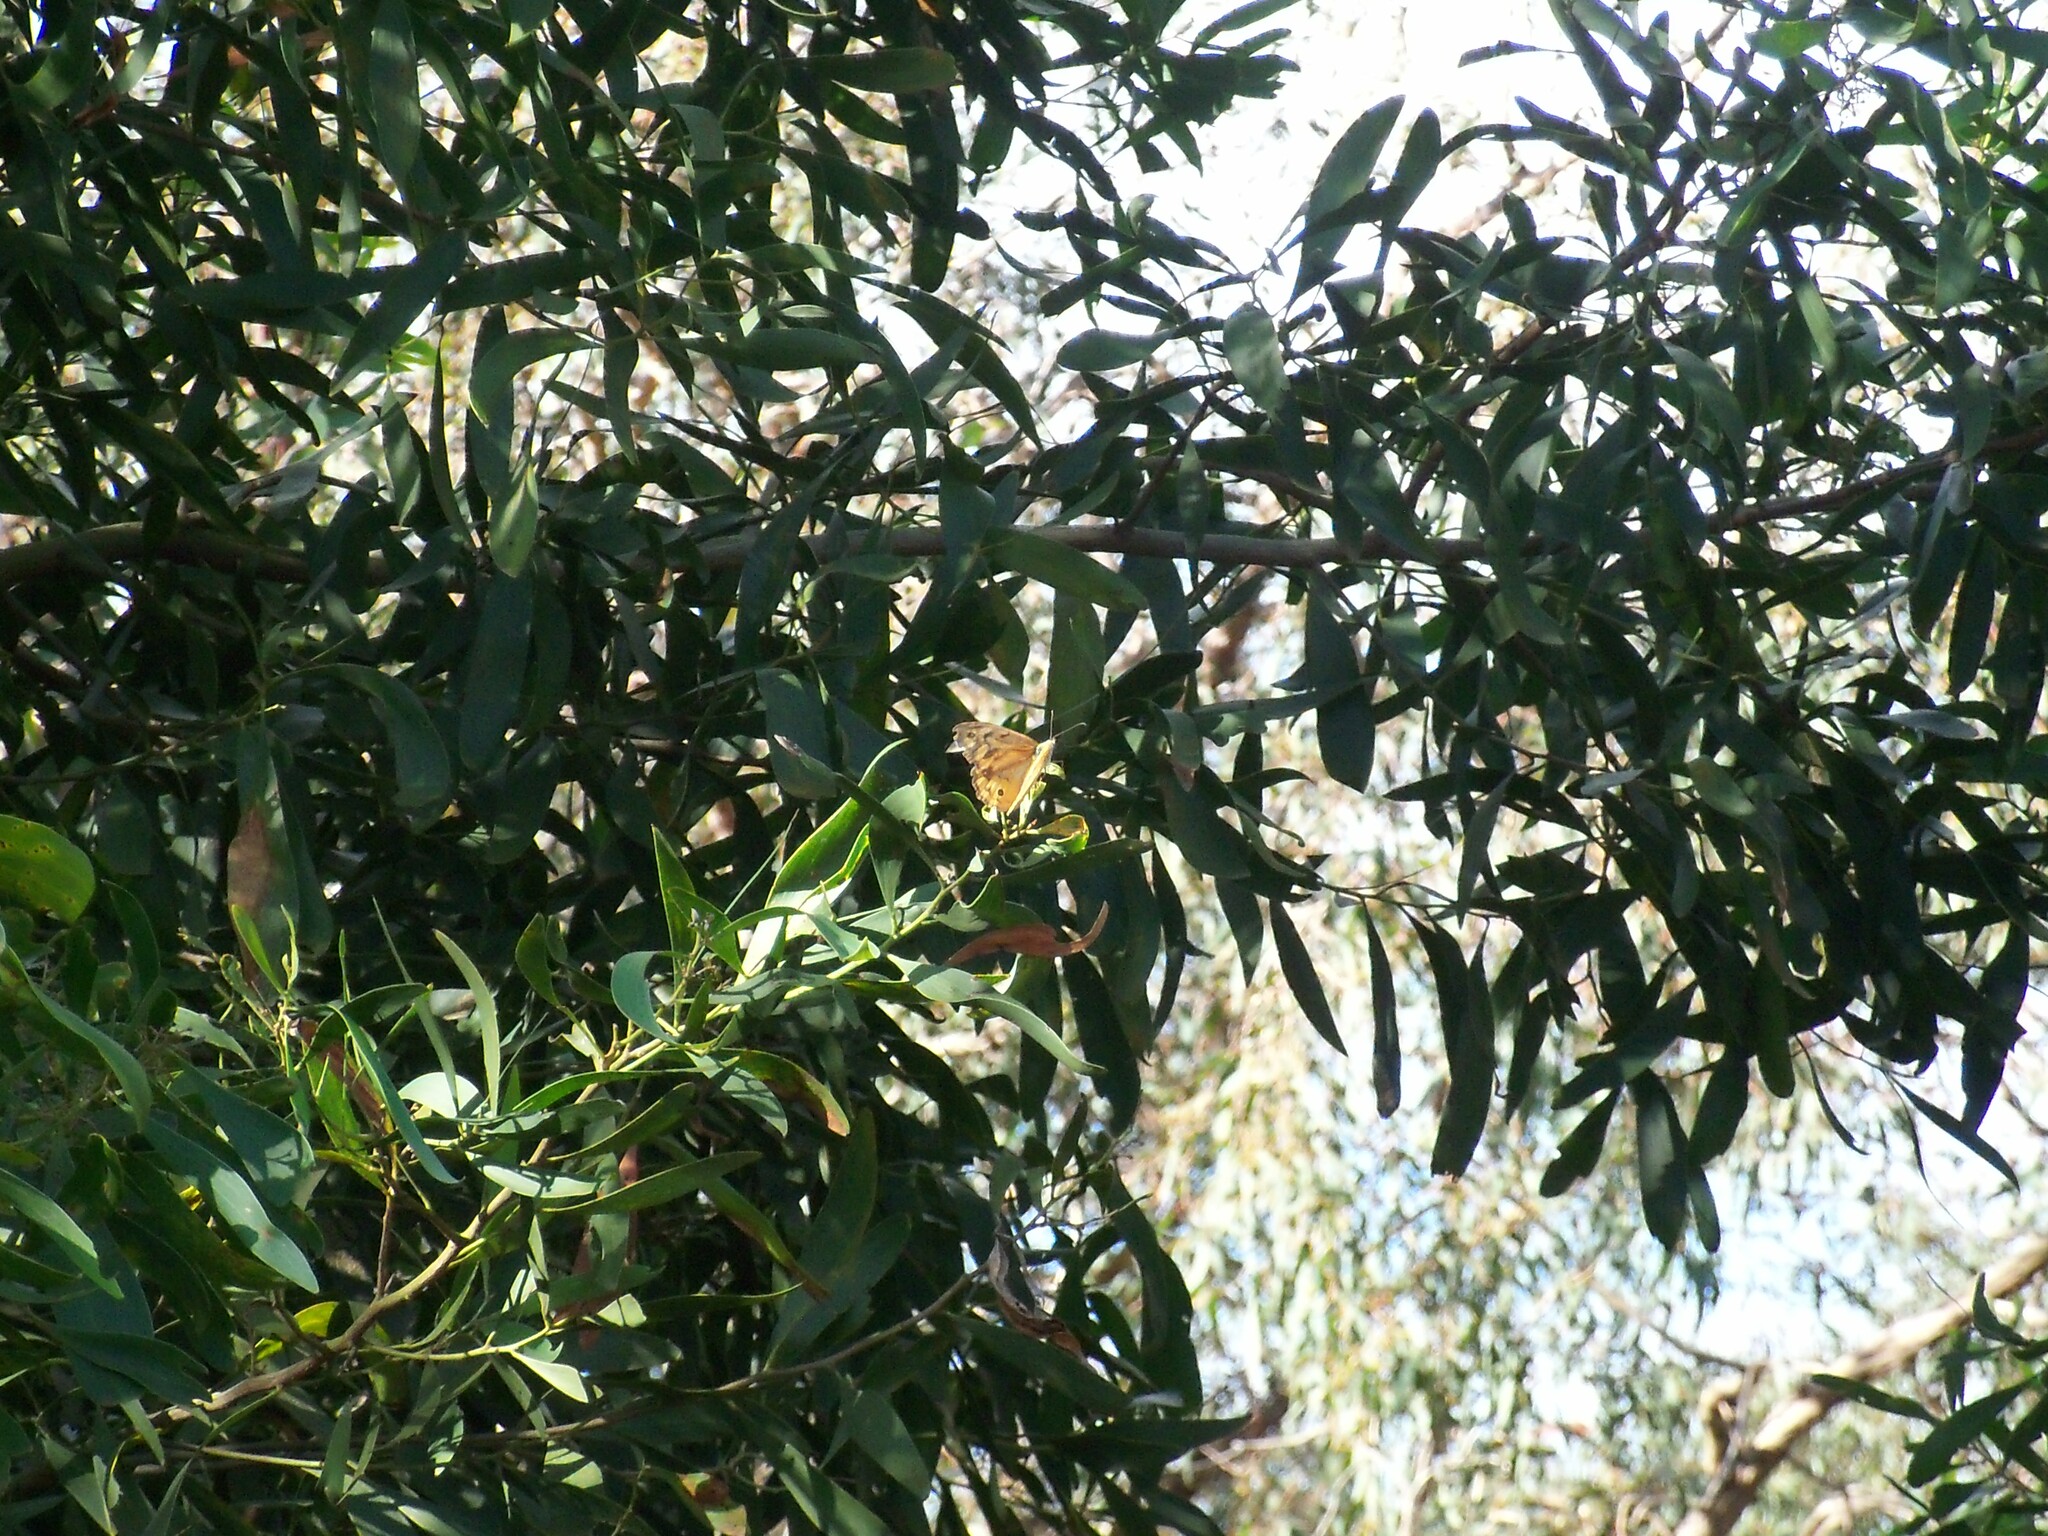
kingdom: Animalia
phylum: Arthropoda
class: Insecta
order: Lepidoptera
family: Nymphalidae
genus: Heteronympha
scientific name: Heteronympha merope
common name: Common brown
